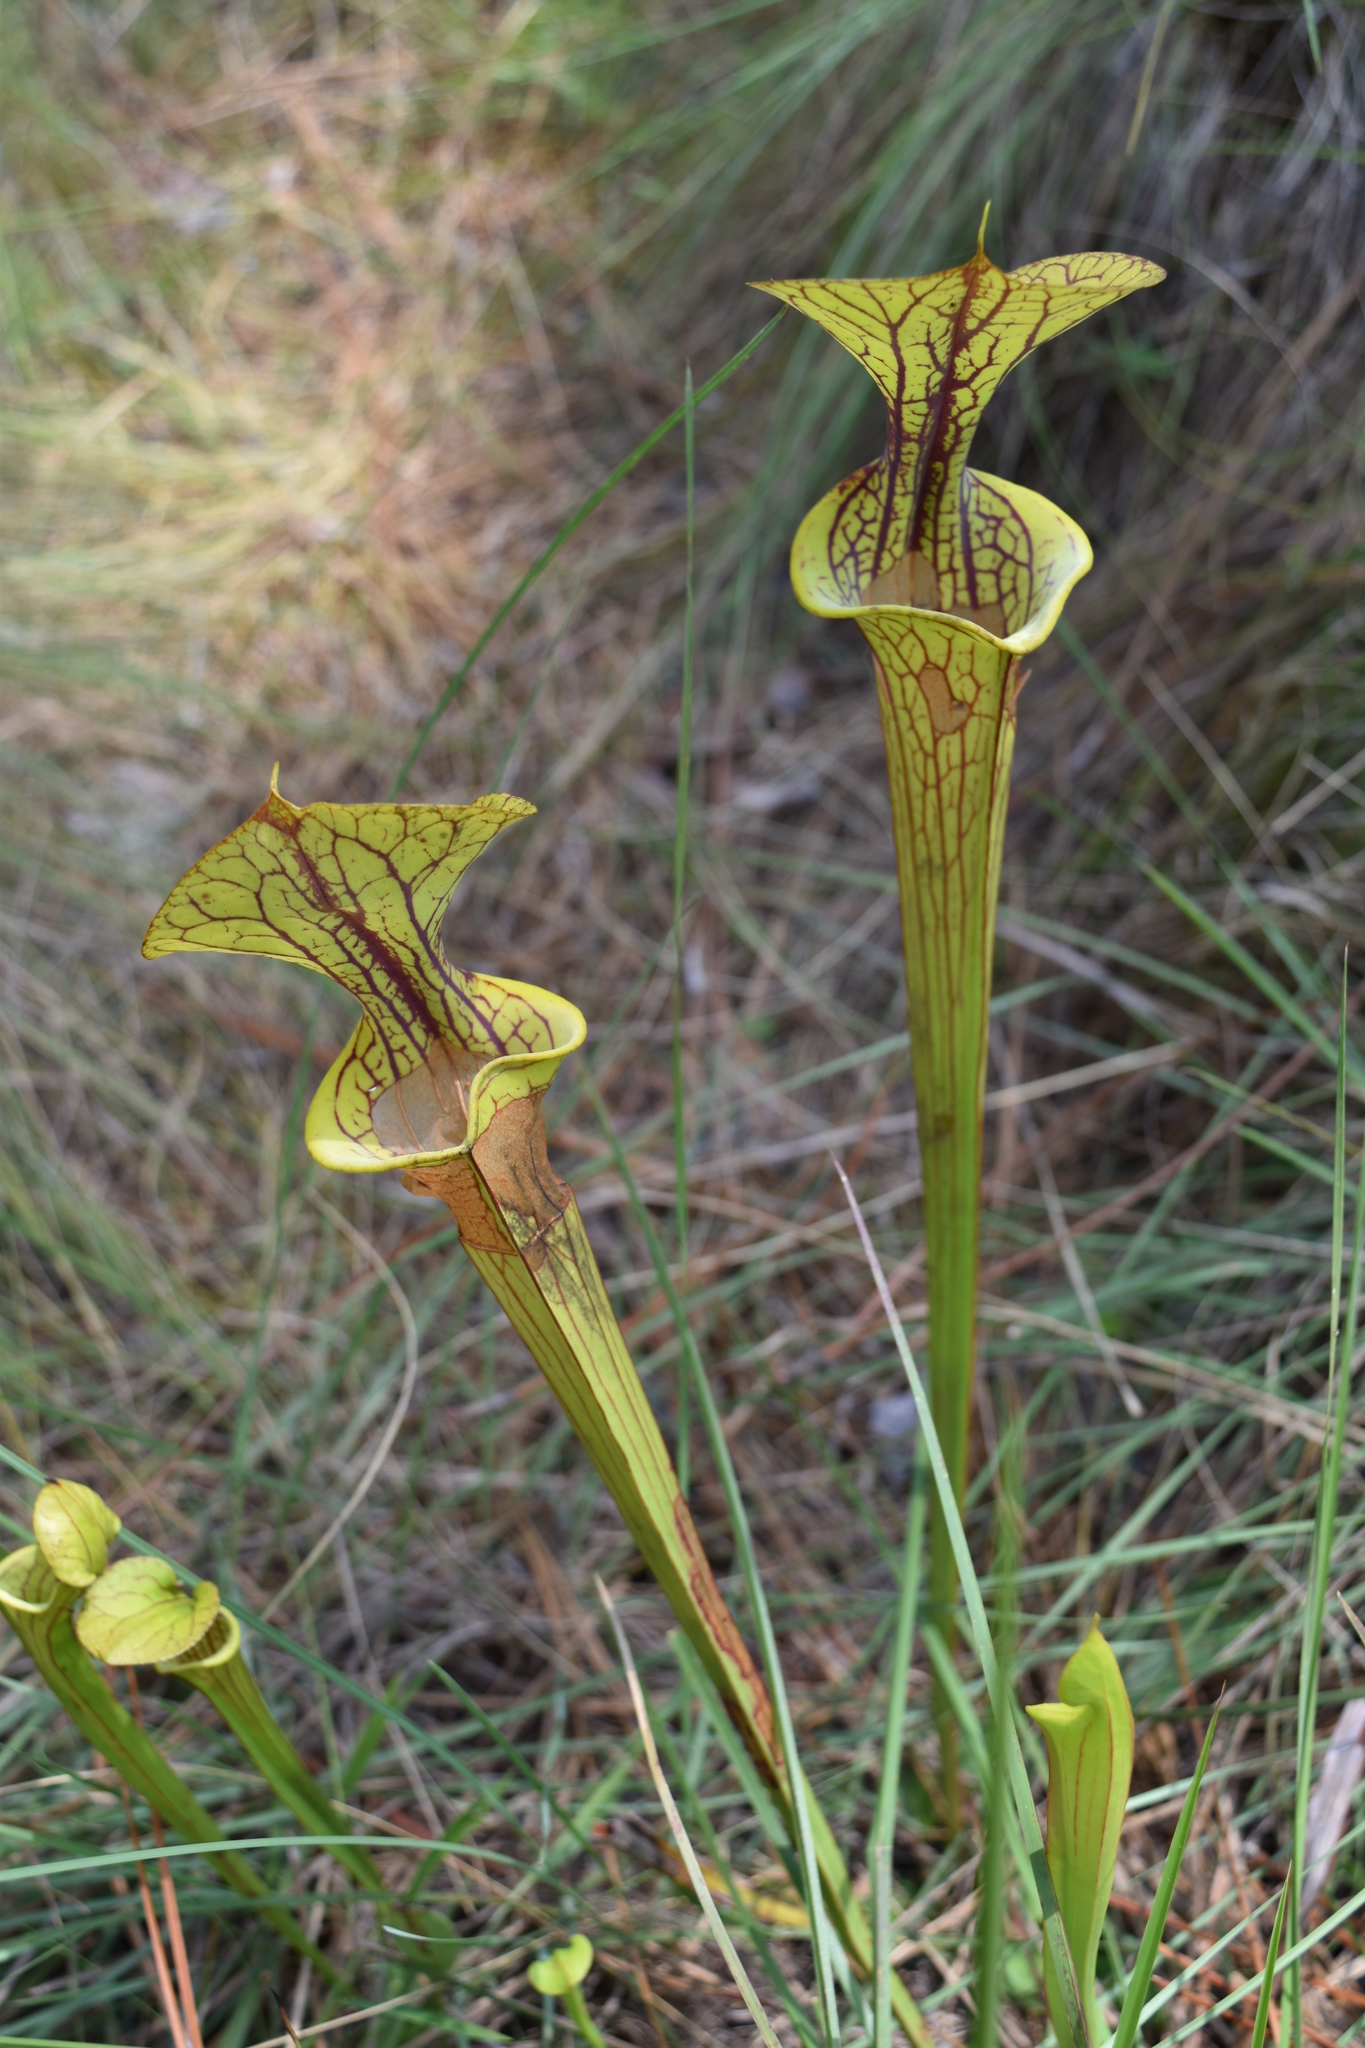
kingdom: Plantae
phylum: Tracheophyta
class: Magnoliopsida
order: Ericales
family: Sarraceniaceae
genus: Sarracenia
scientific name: Sarracenia flava
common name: Trumpets
